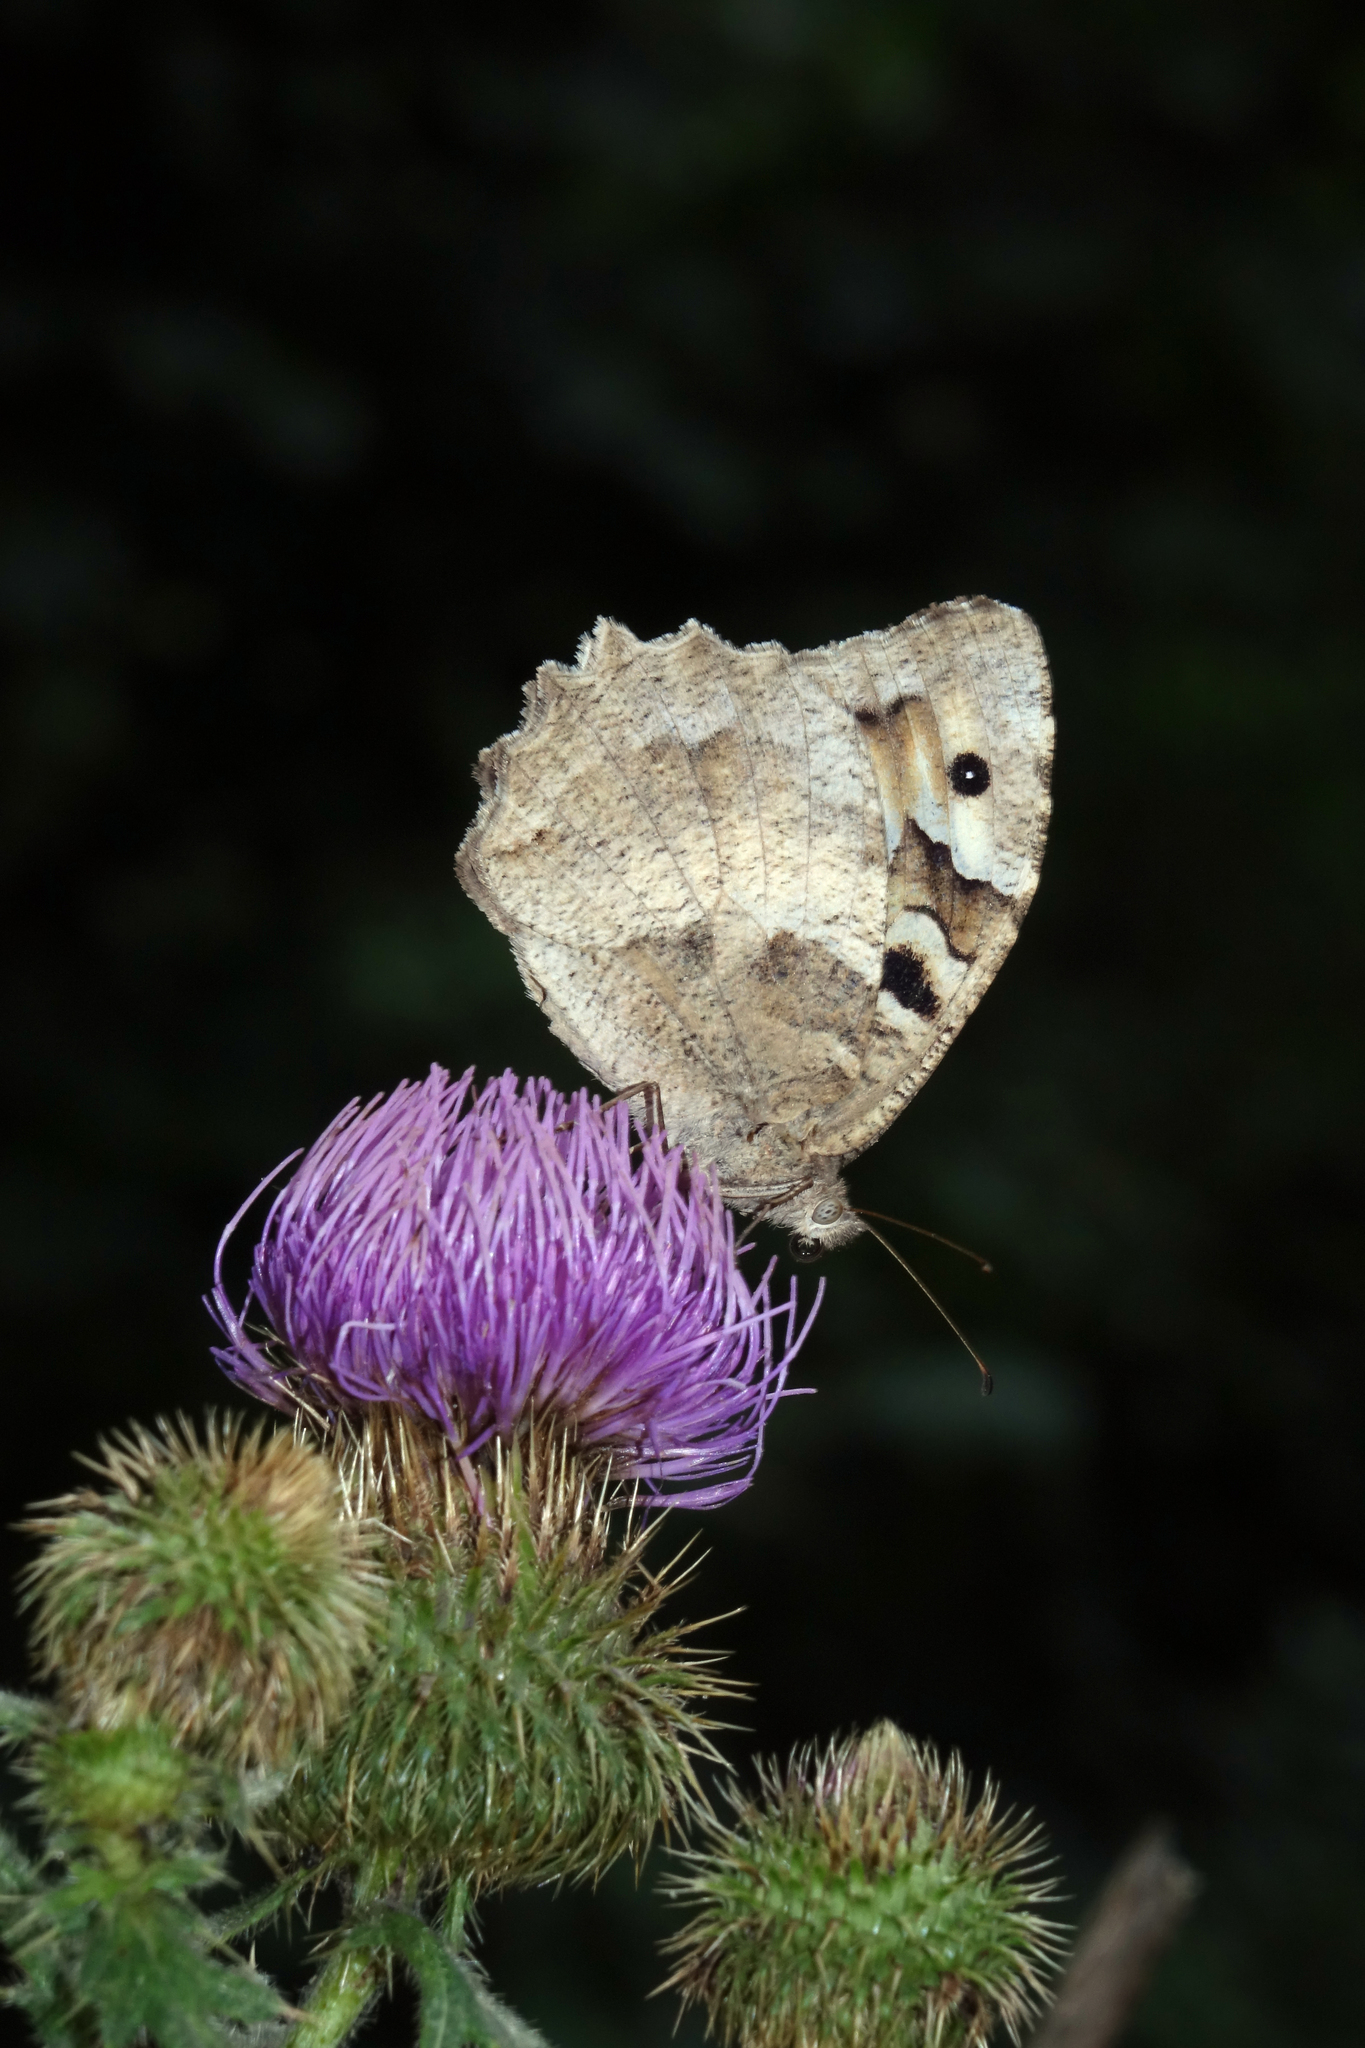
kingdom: Animalia
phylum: Arthropoda
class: Insecta
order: Lepidoptera
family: Nymphalidae
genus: Satyrus
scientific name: Satyrus briseis
